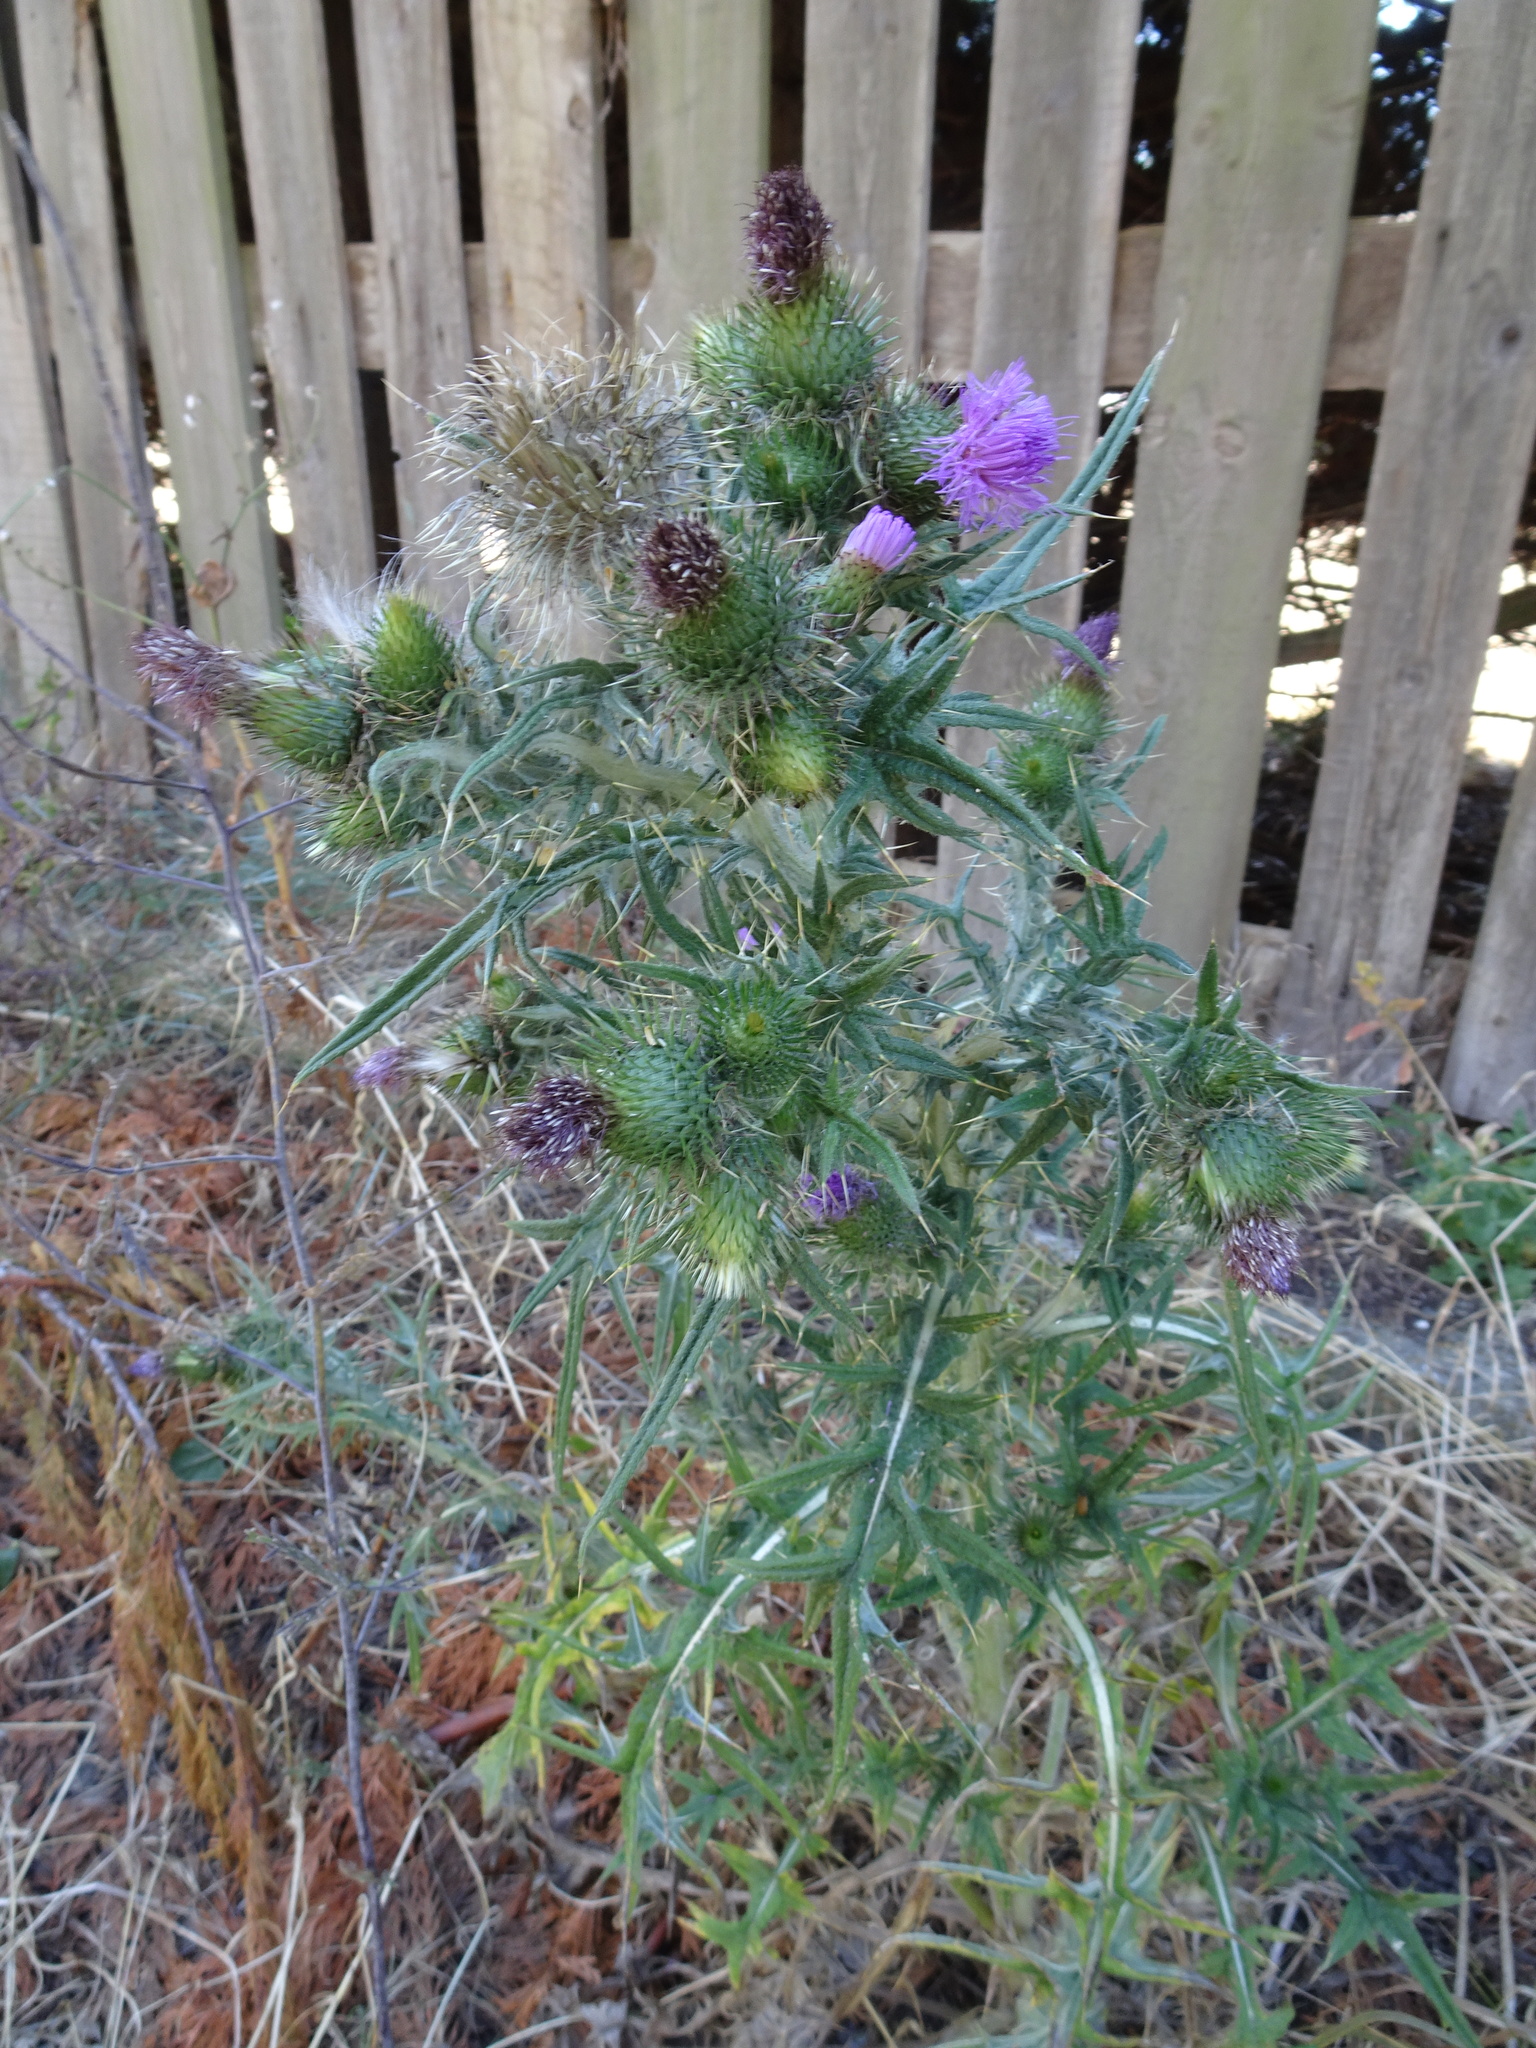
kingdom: Plantae
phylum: Tracheophyta
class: Magnoliopsida
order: Asterales
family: Asteraceae
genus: Cirsium
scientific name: Cirsium vulgare
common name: Bull thistle
